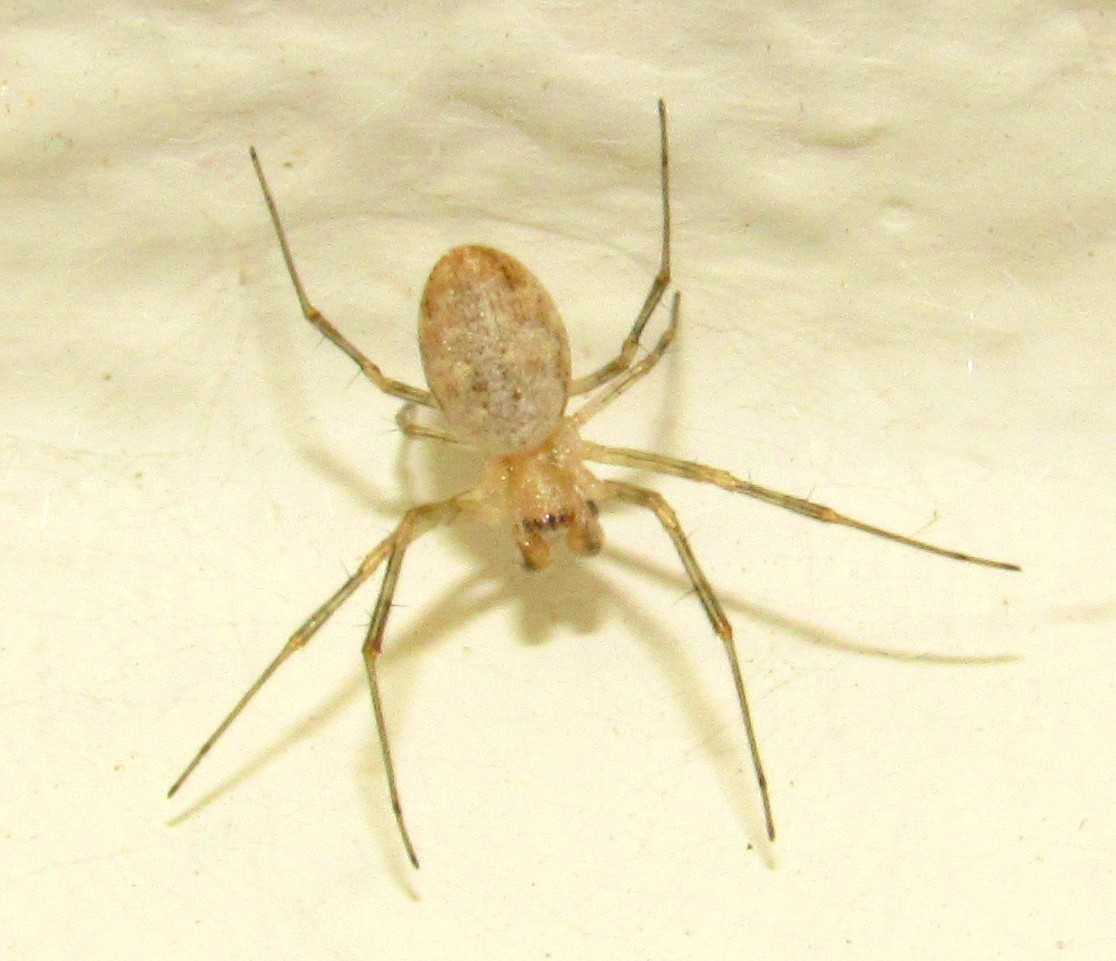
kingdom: Animalia
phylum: Arthropoda
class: Arachnida
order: Araneae
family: Araneidae
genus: Nephilingis
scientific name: Nephilingis cruentata
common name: African hermit spider
